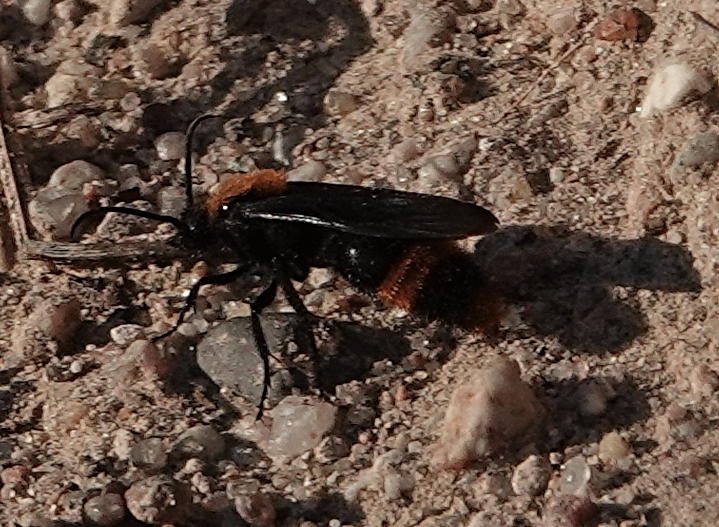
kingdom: Animalia
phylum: Arthropoda
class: Insecta
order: Hymenoptera
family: Mutillidae
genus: Dasymutilla
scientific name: Dasymutilla occidentalis
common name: Common eastern velvet ant
